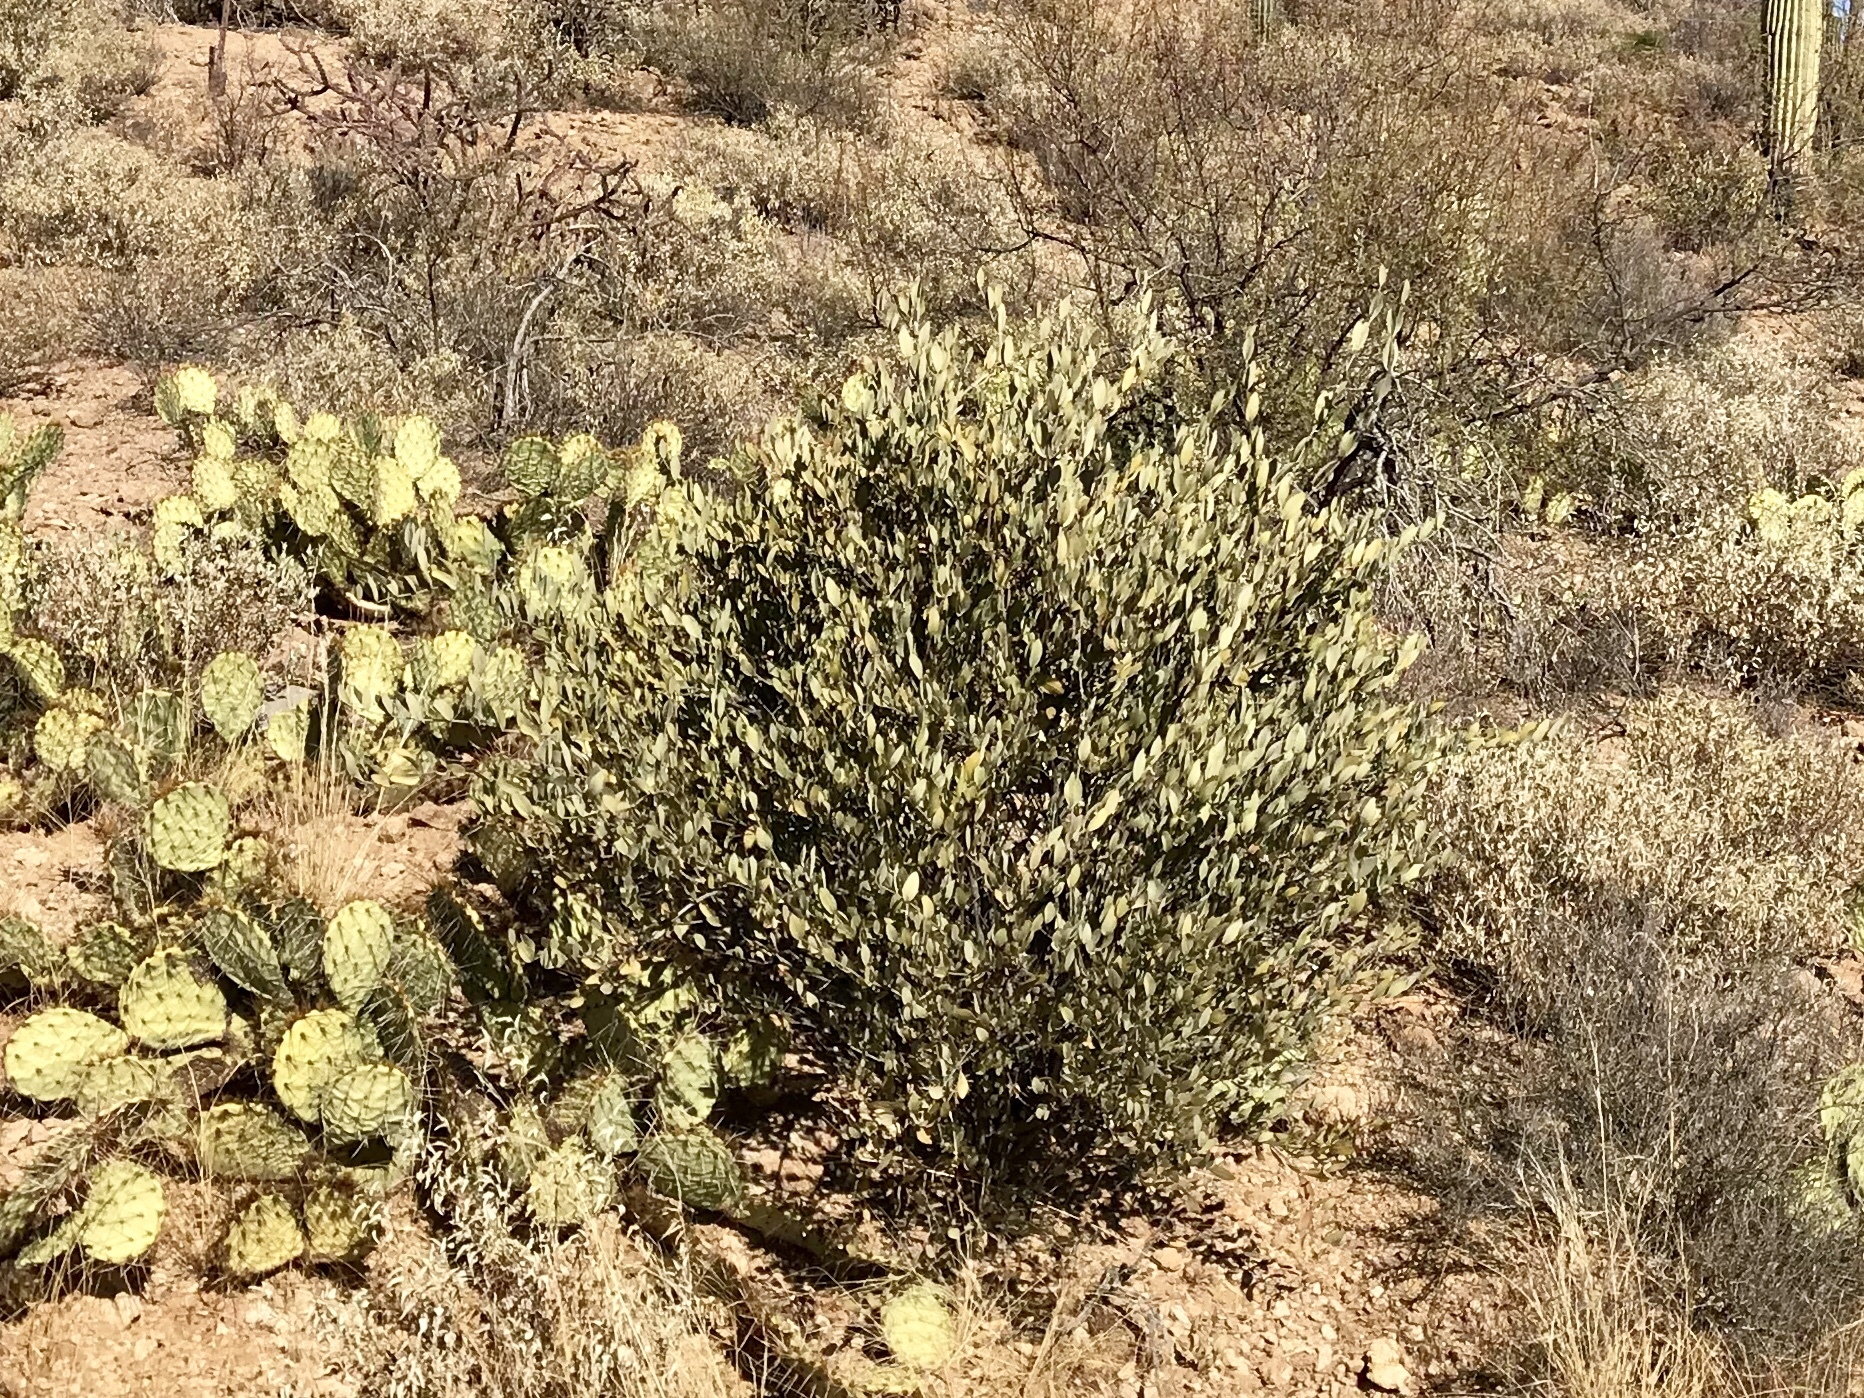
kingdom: Plantae
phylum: Tracheophyta
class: Magnoliopsida
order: Caryophyllales
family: Simmondsiaceae
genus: Simmondsia
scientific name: Simmondsia chinensis
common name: Jojoba
